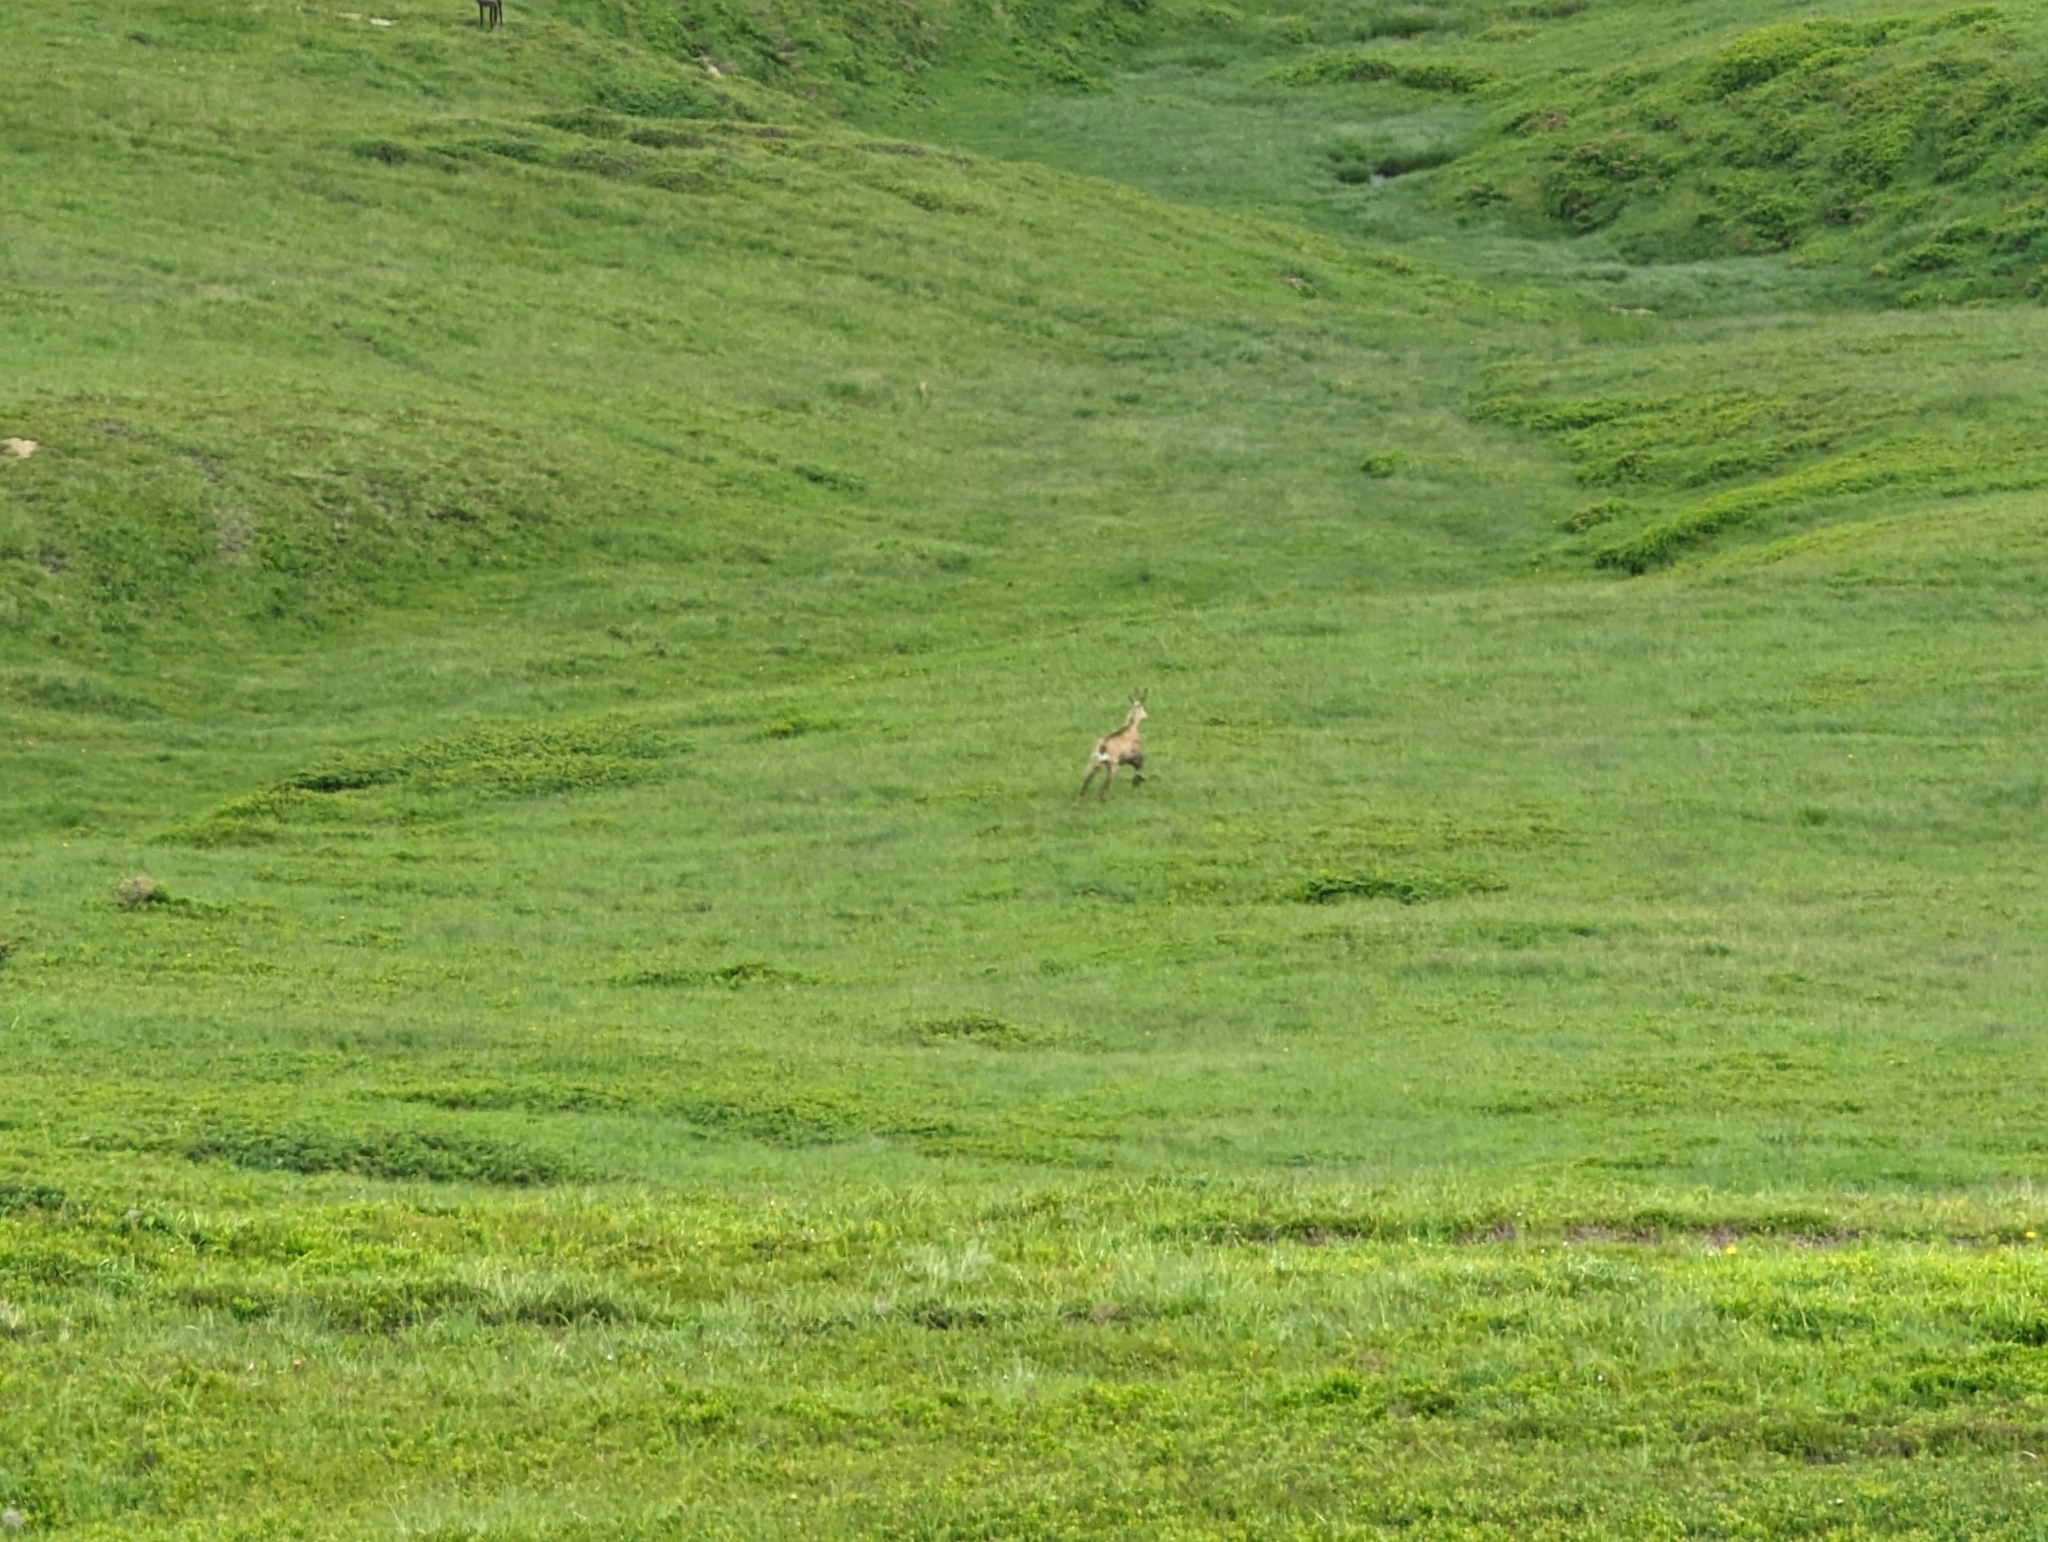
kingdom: Animalia
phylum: Chordata
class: Mammalia
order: Artiodactyla
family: Bovidae
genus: Rupicapra
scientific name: Rupicapra rupicapra
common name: Chamois
